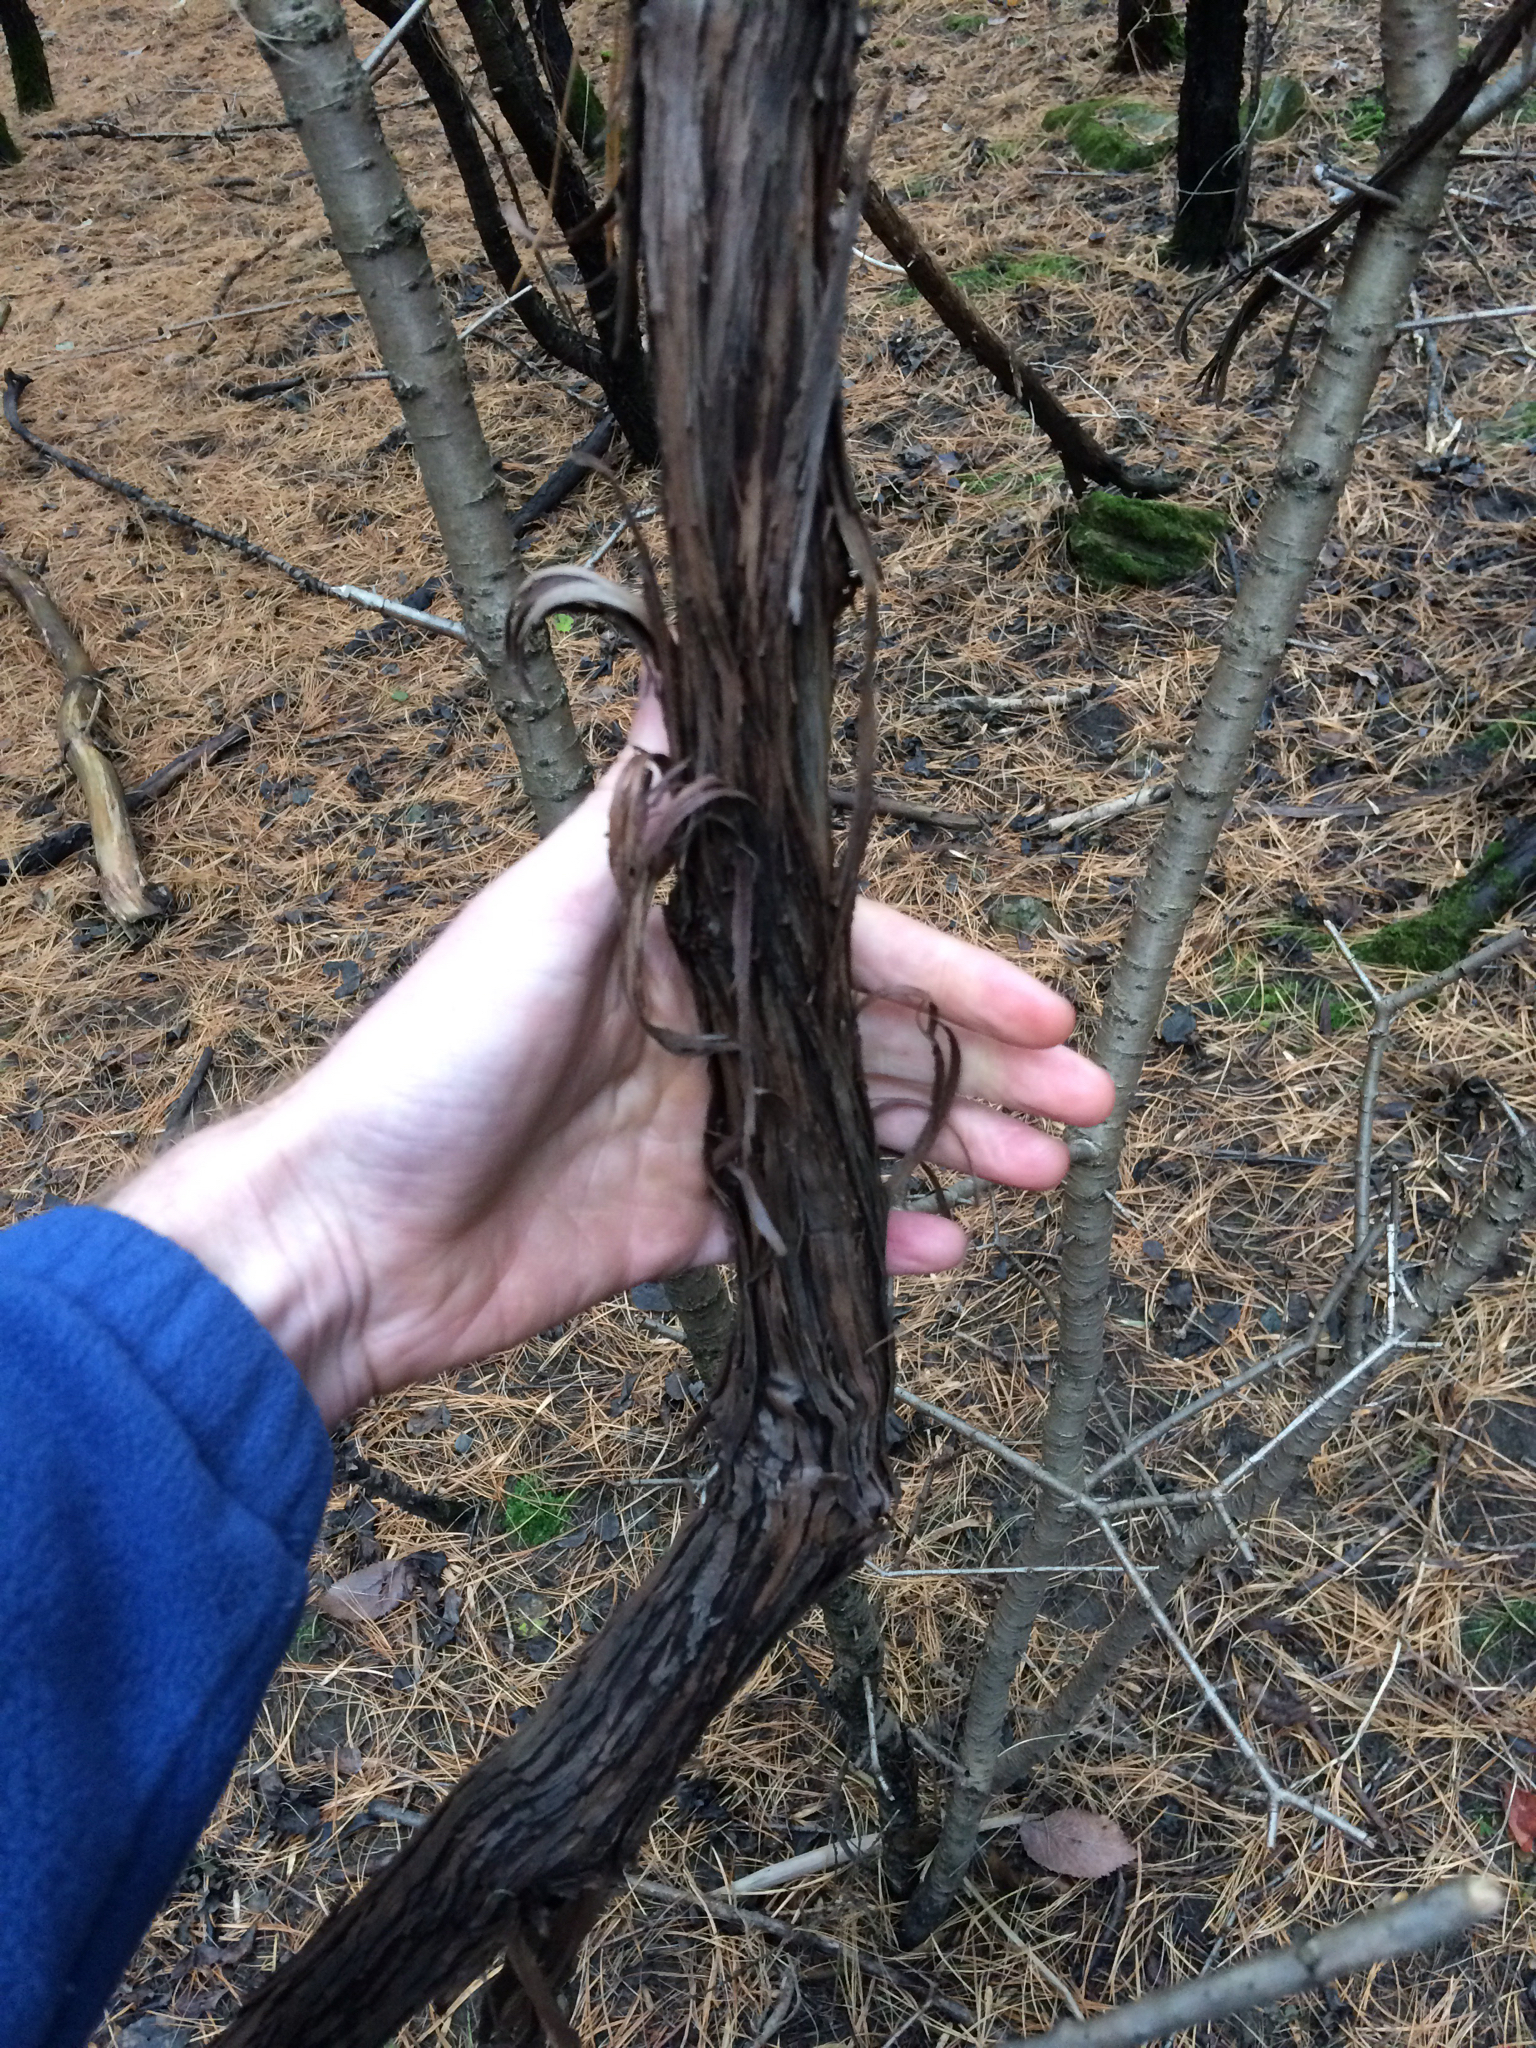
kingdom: Plantae
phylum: Tracheophyta
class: Magnoliopsida
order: Vitales
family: Vitaceae
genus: Vitis
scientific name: Vitis
